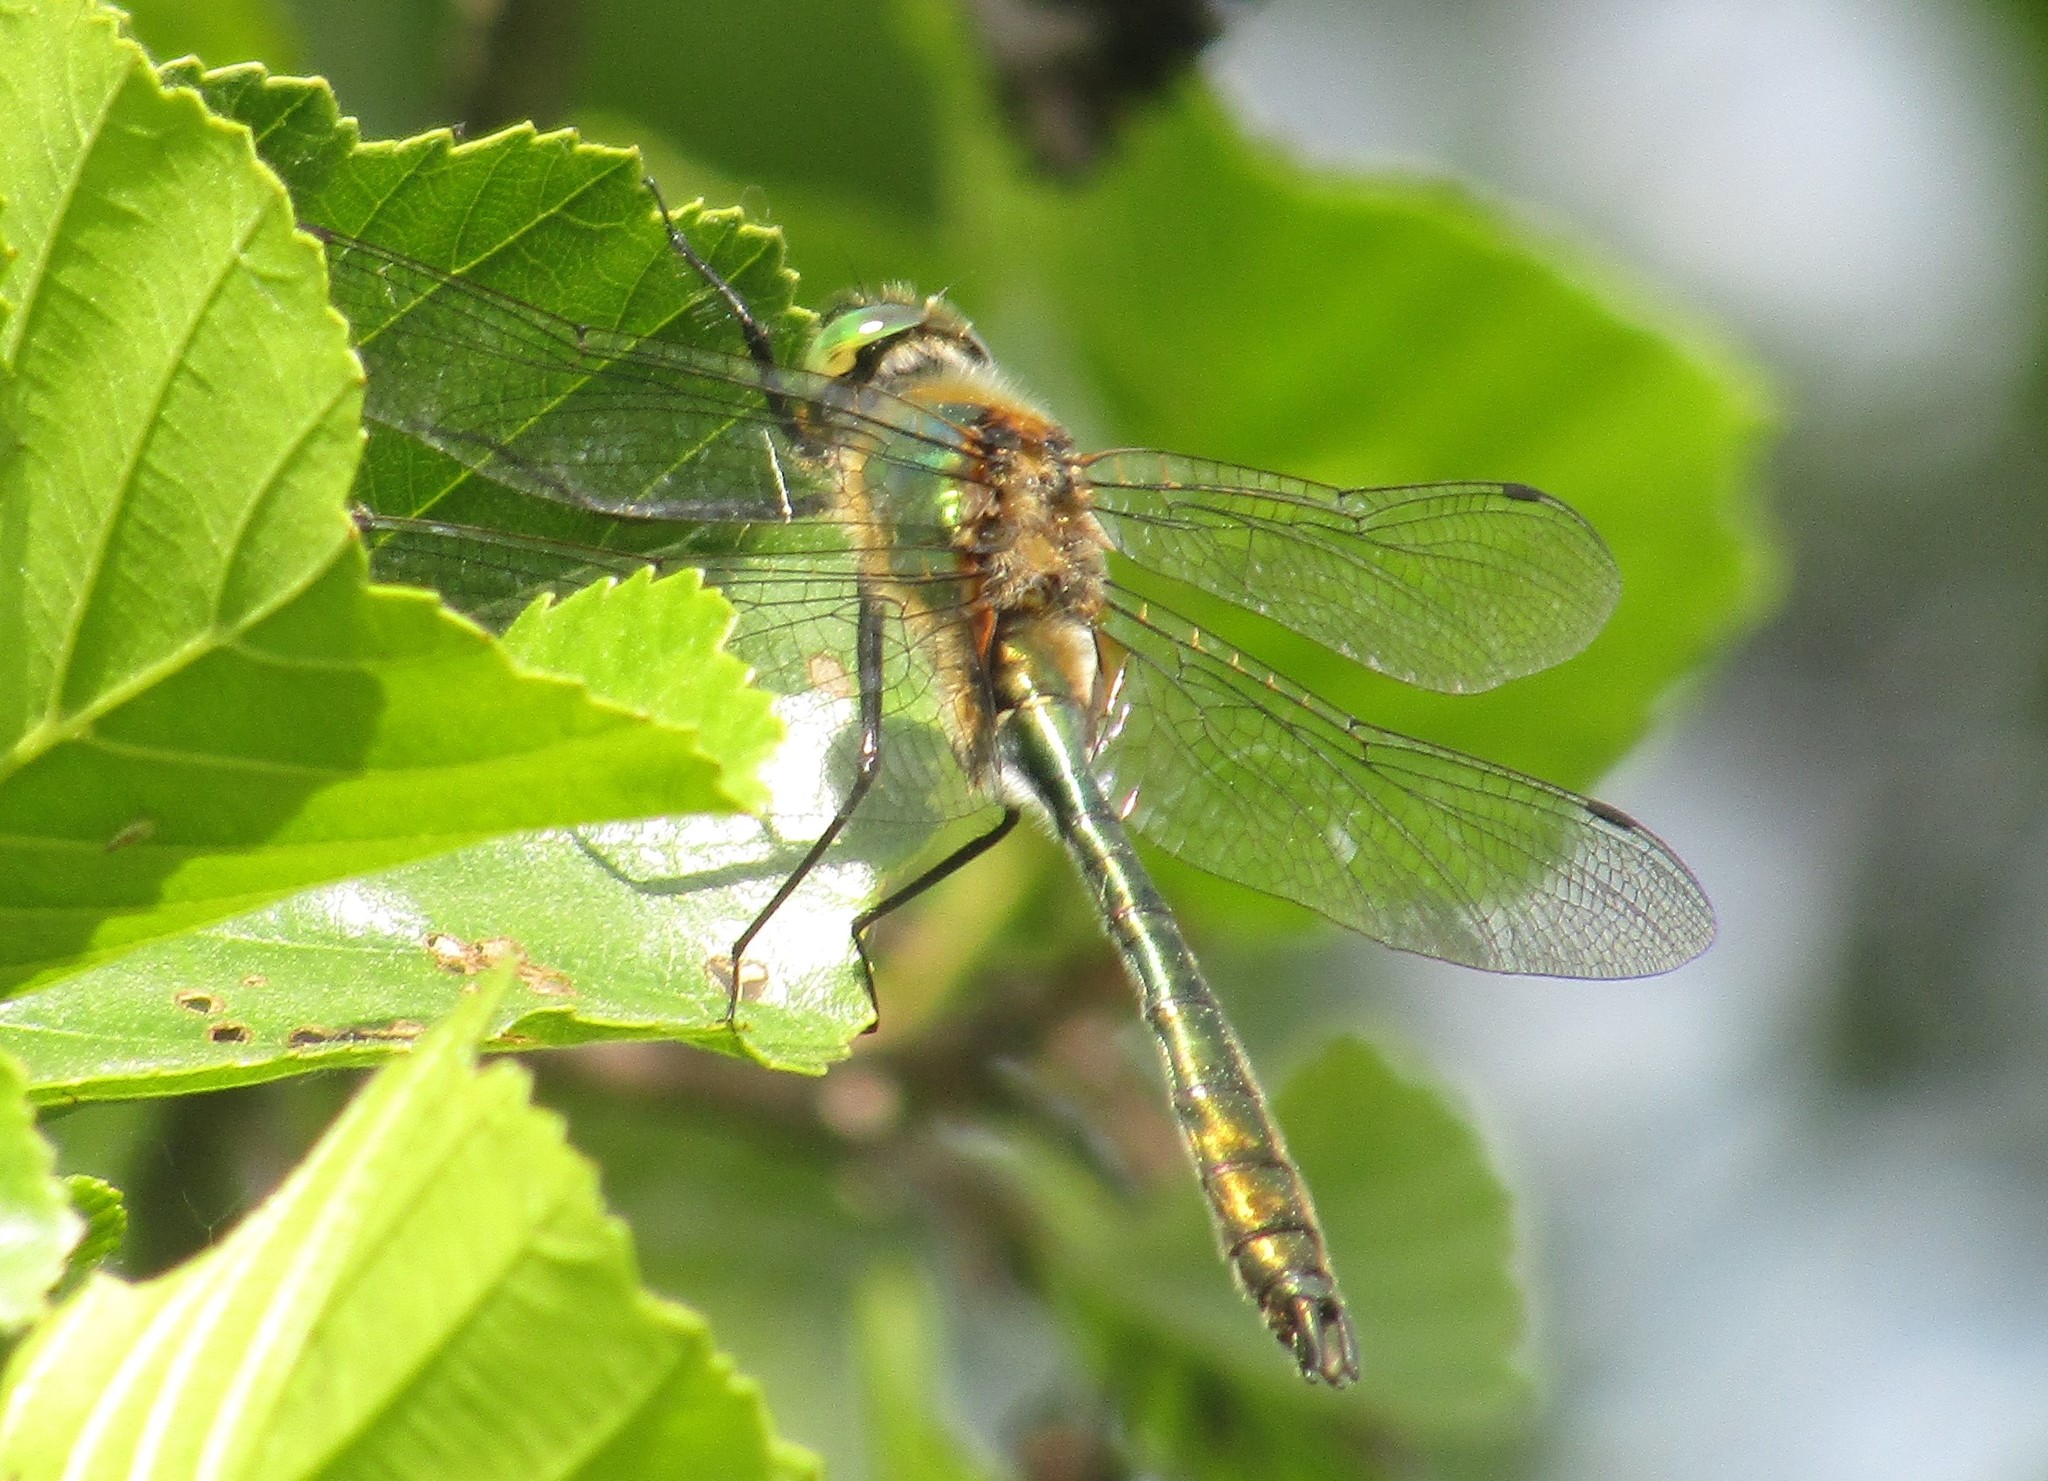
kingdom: Animalia
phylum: Arthropoda
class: Insecta
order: Odonata
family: Corduliidae
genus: Cordulia
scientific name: Cordulia aenea
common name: Downy emerald
